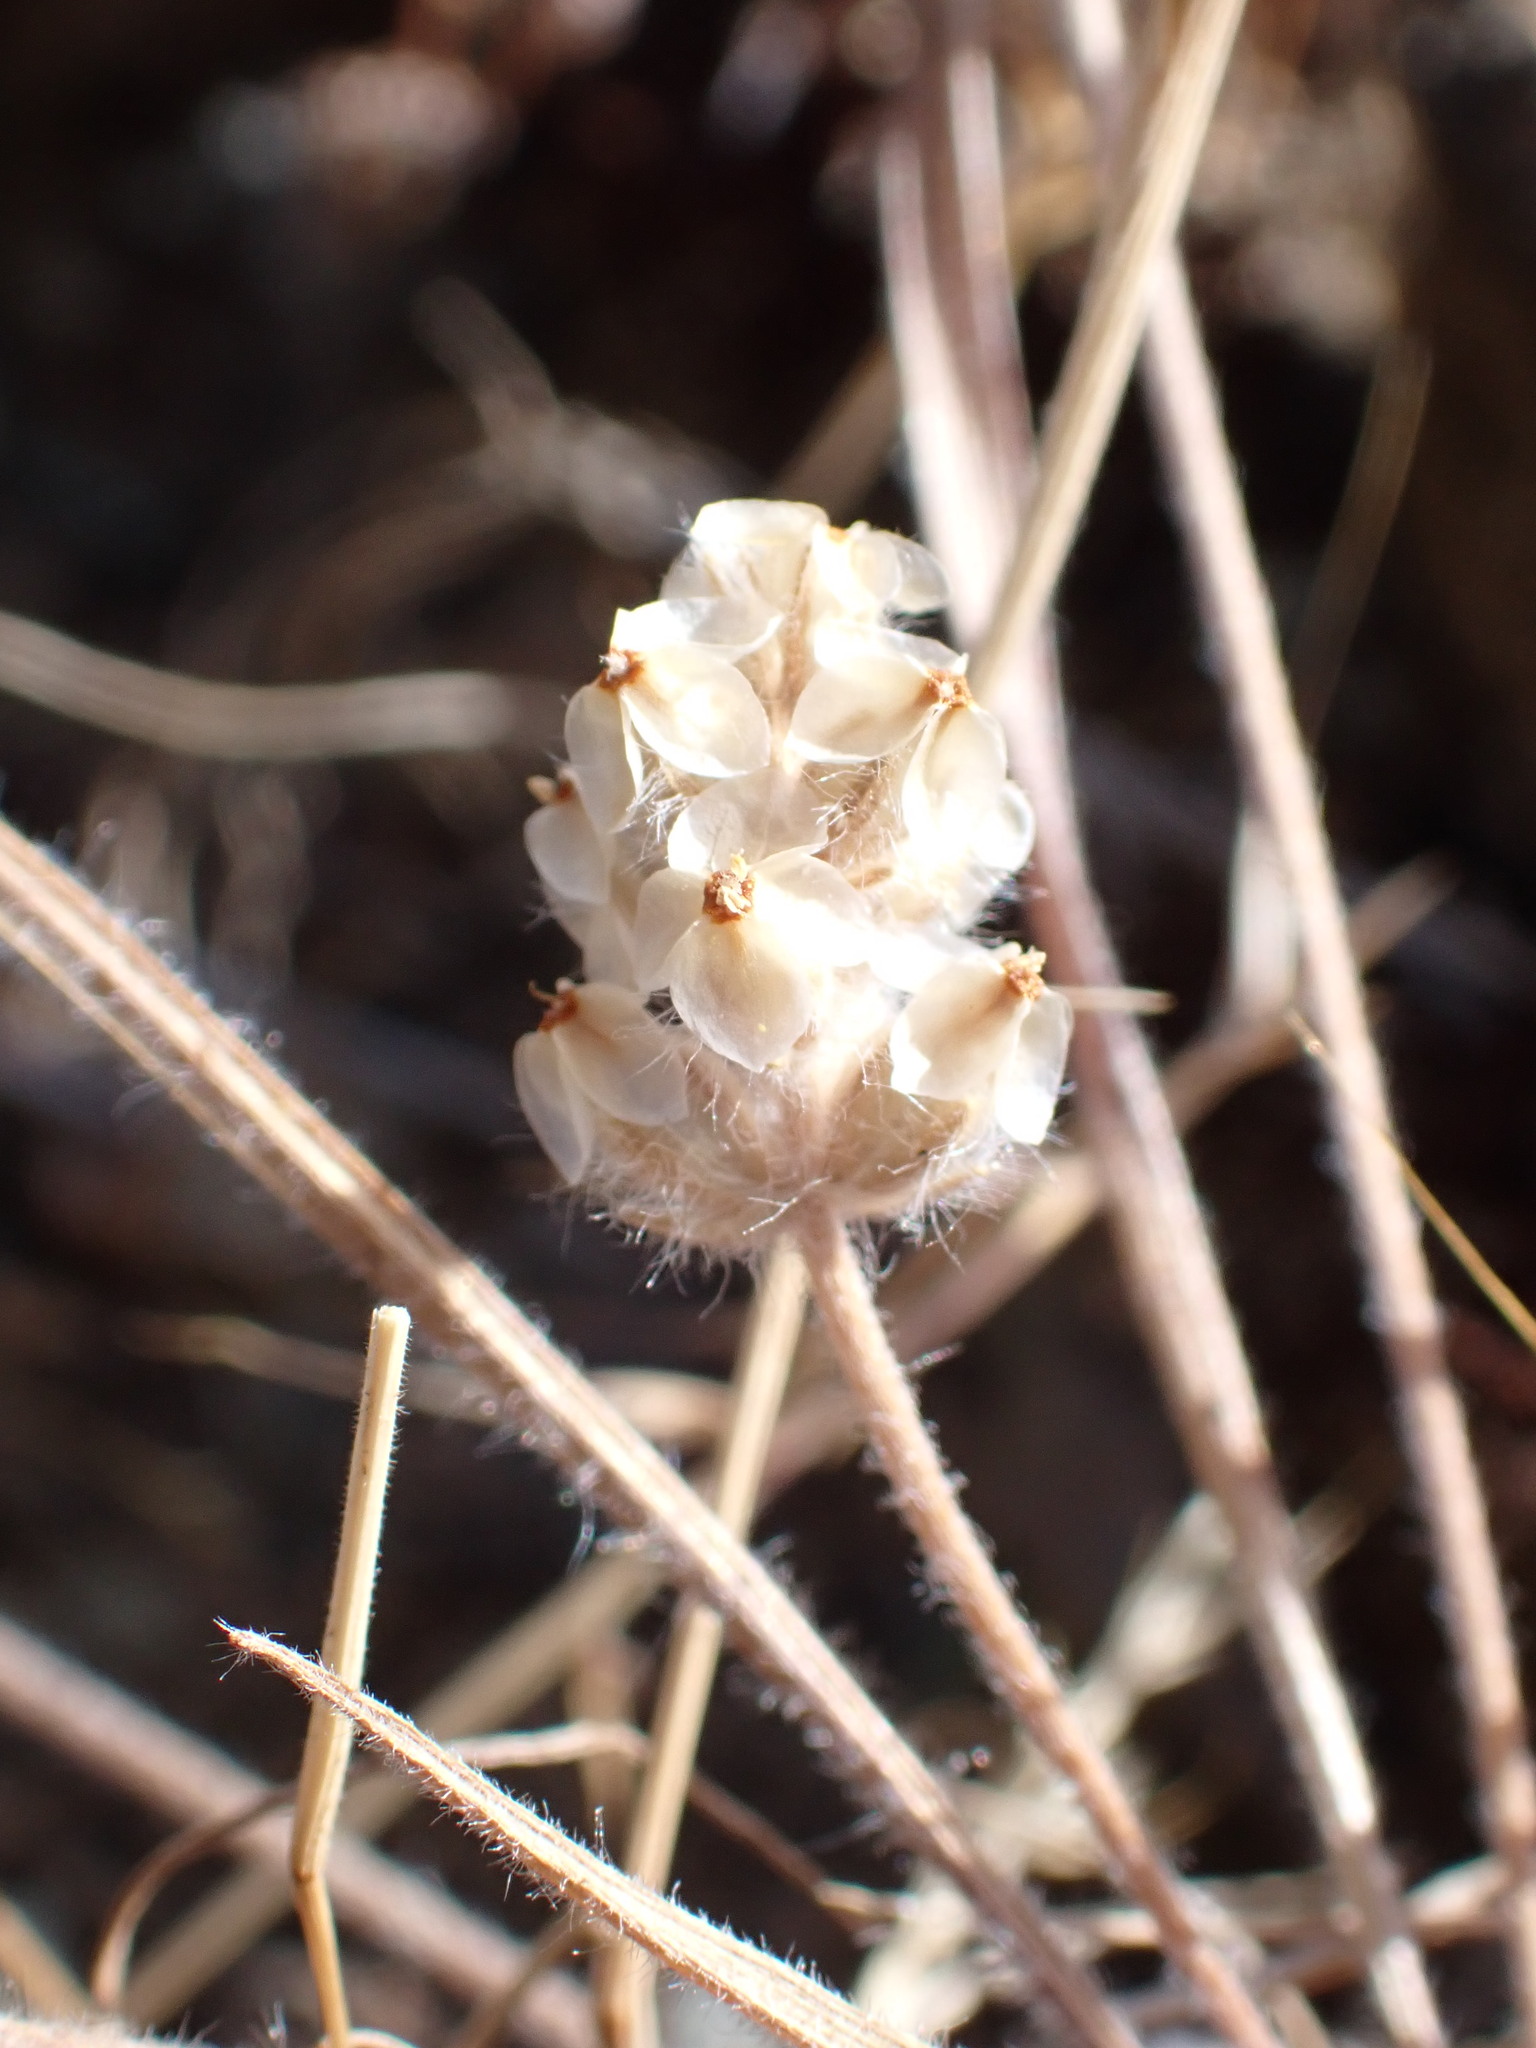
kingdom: Plantae
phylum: Tracheophyta
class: Magnoliopsida
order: Lamiales
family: Plantaginaceae
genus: Plantago
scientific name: Plantago erecta
